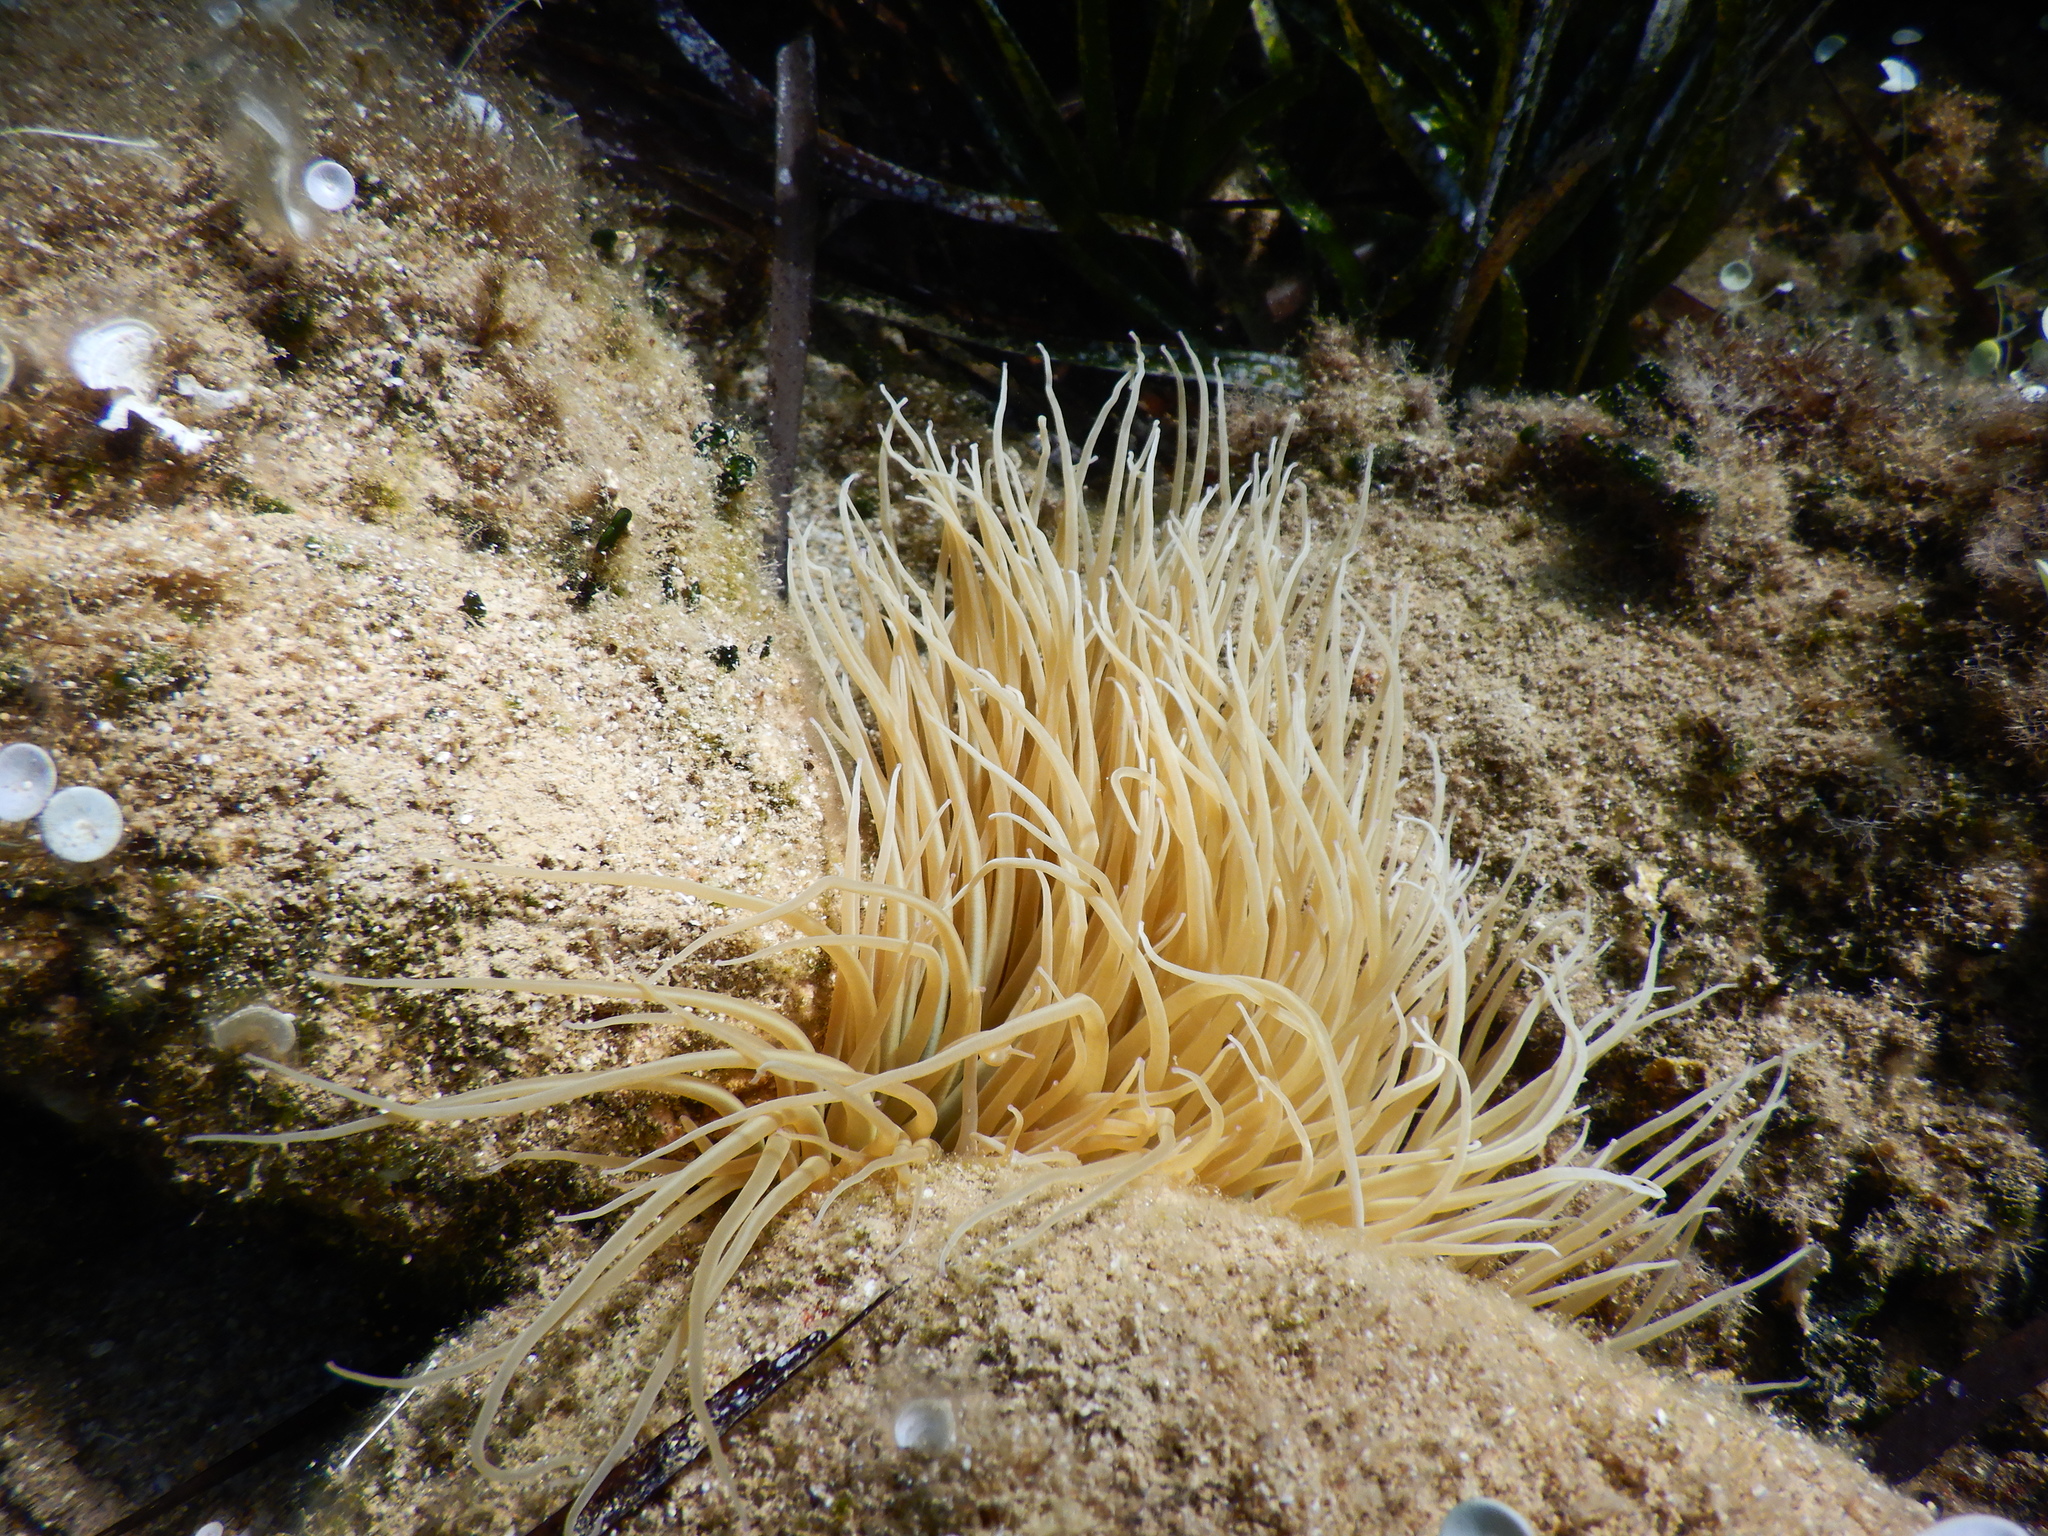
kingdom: Animalia
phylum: Cnidaria
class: Anthozoa
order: Actiniaria
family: Actiniidae
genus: Anemonia
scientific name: Anemonia viridis
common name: Snakelocks anemone
